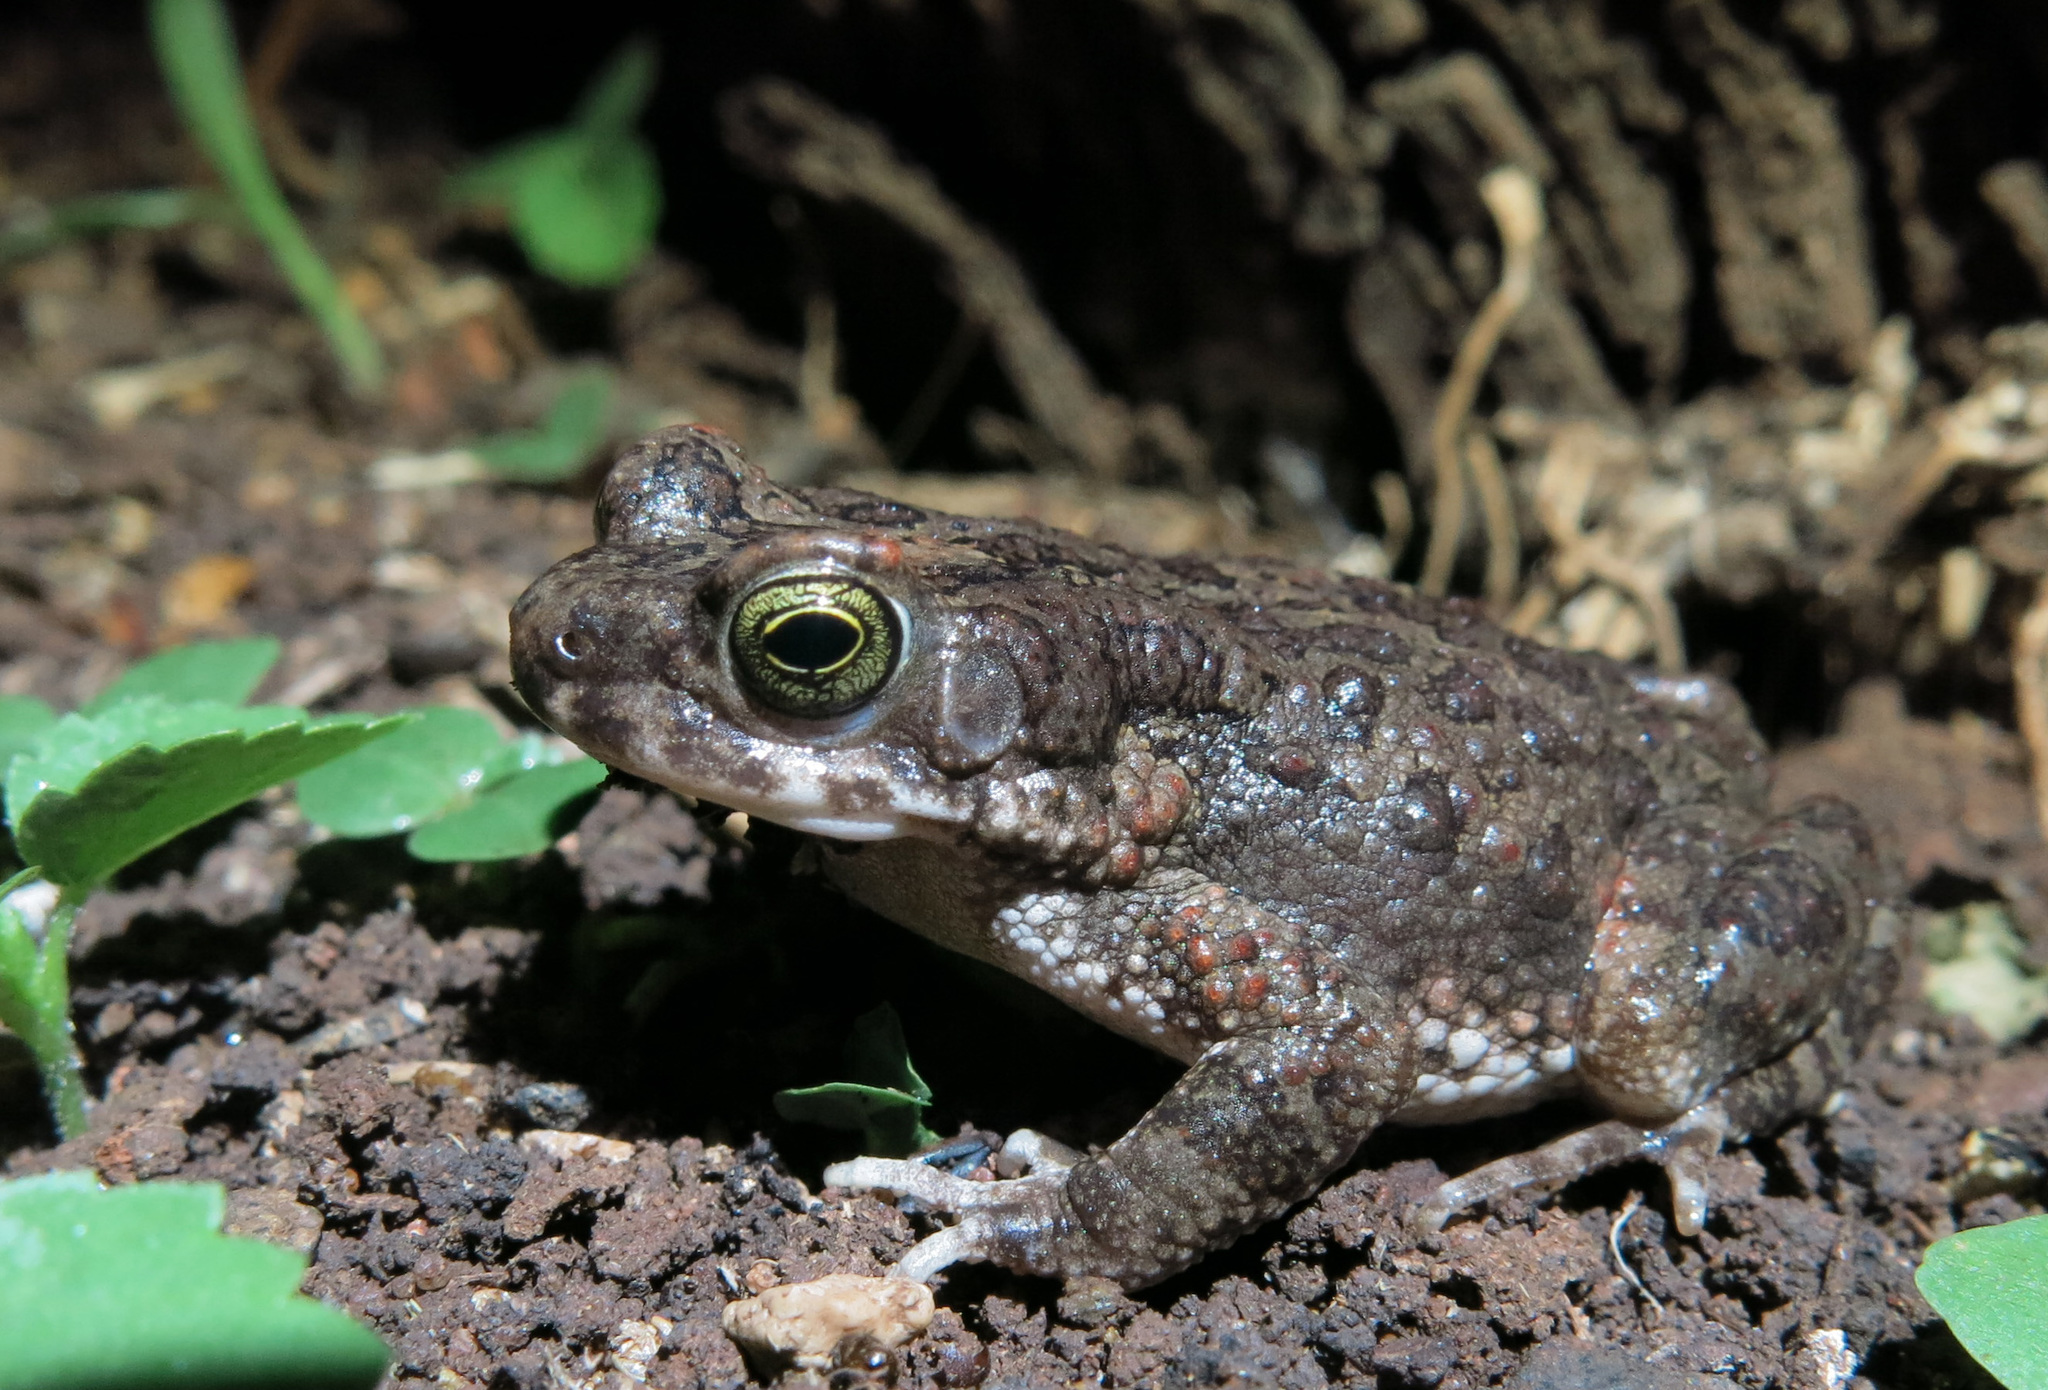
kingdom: Animalia
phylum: Chordata
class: Amphibia
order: Anura
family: Bufonidae
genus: Poyntonophrynus
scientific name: Poyntonophrynus fenoulheti
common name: Fenoulhet's toad
